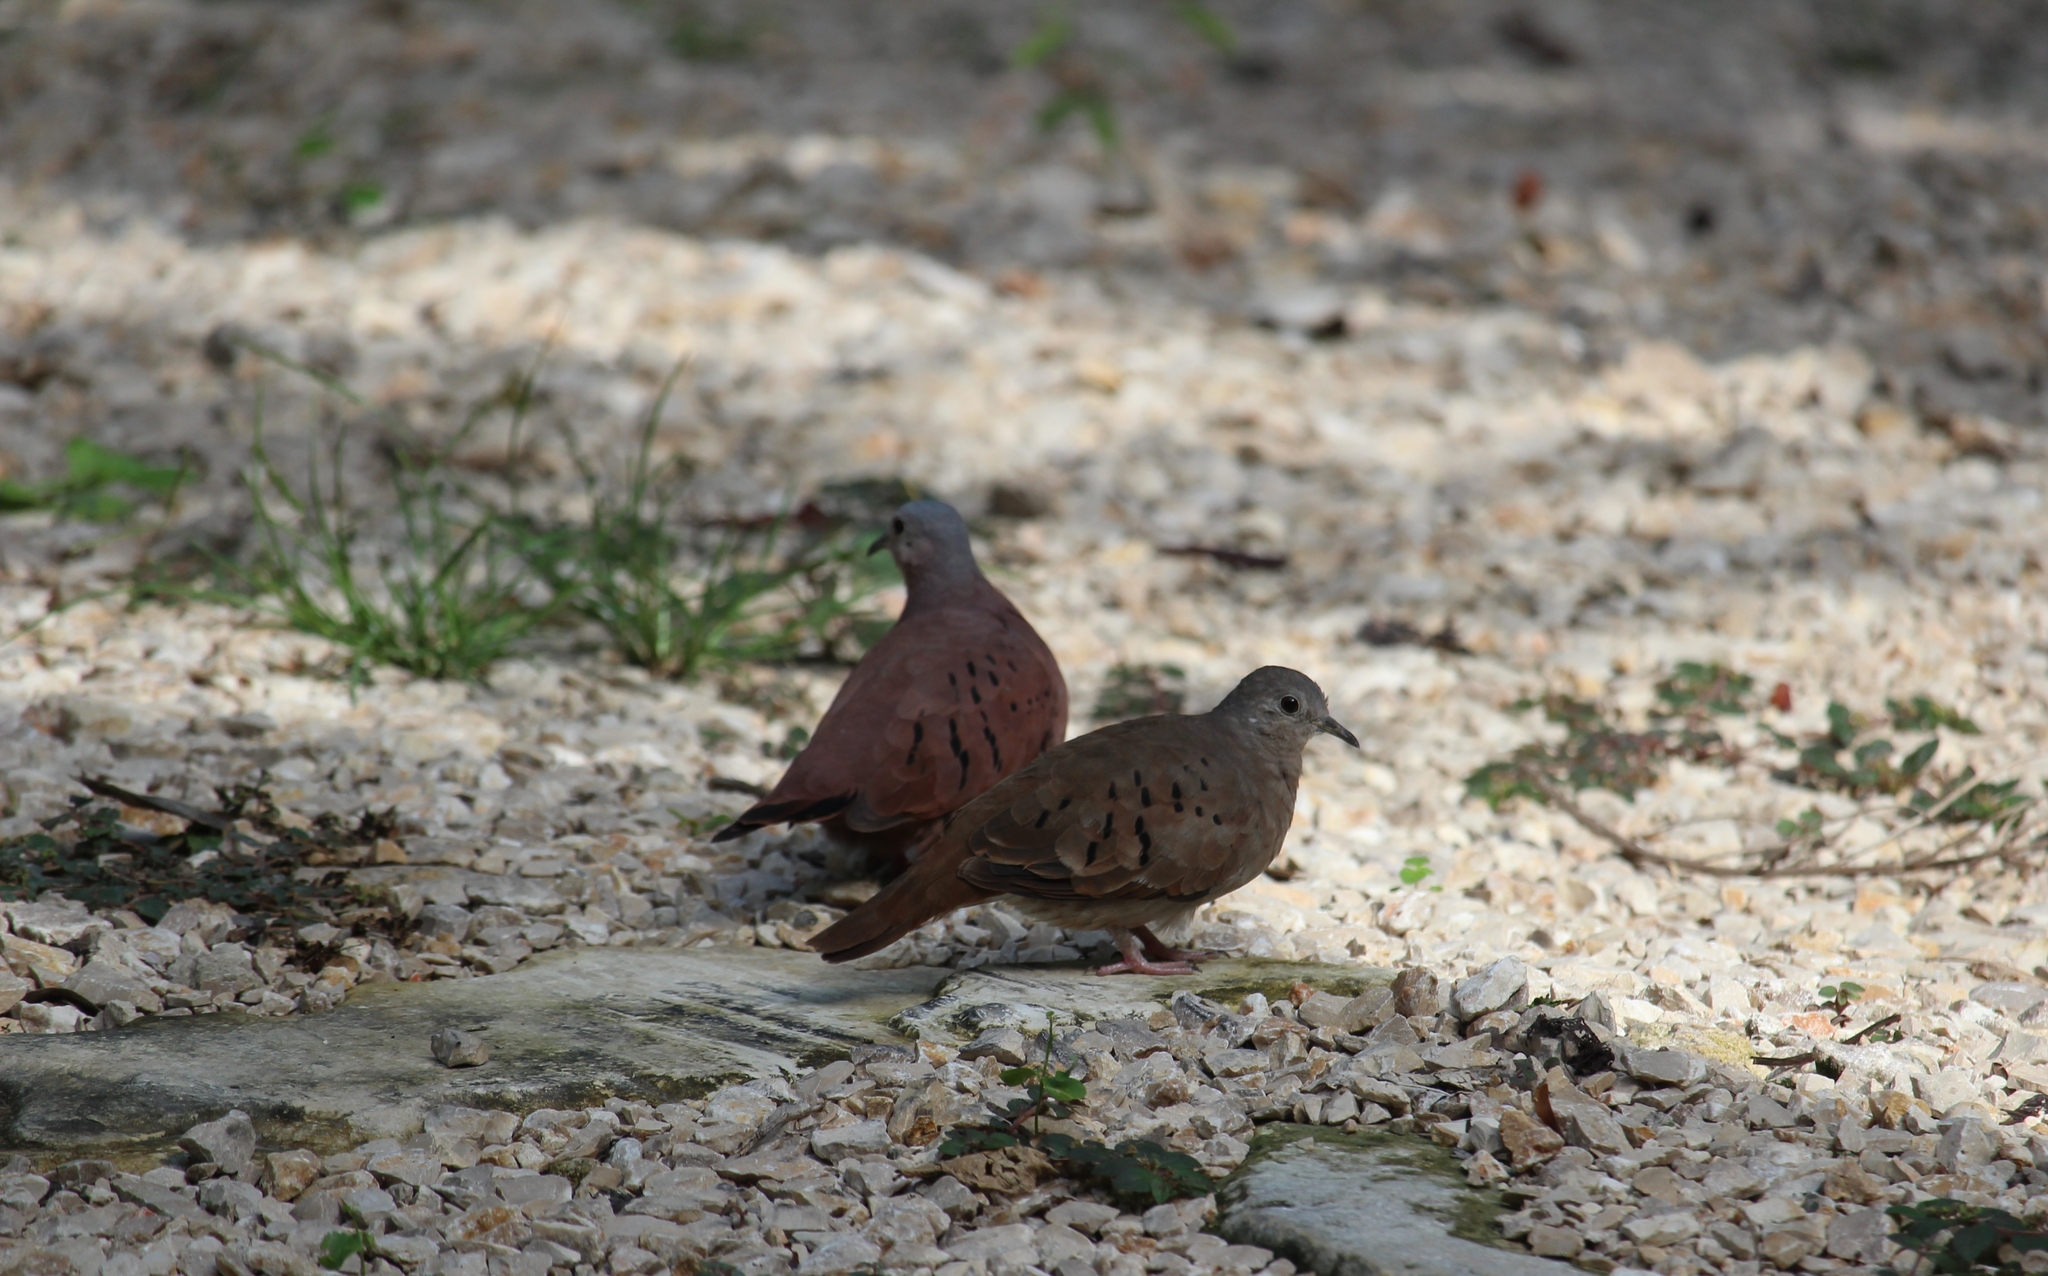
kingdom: Animalia
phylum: Chordata
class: Aves
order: Columbiformes
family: Columbidae
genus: Columbina
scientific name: Columbina talpacoti
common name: Ruddy ground dove
